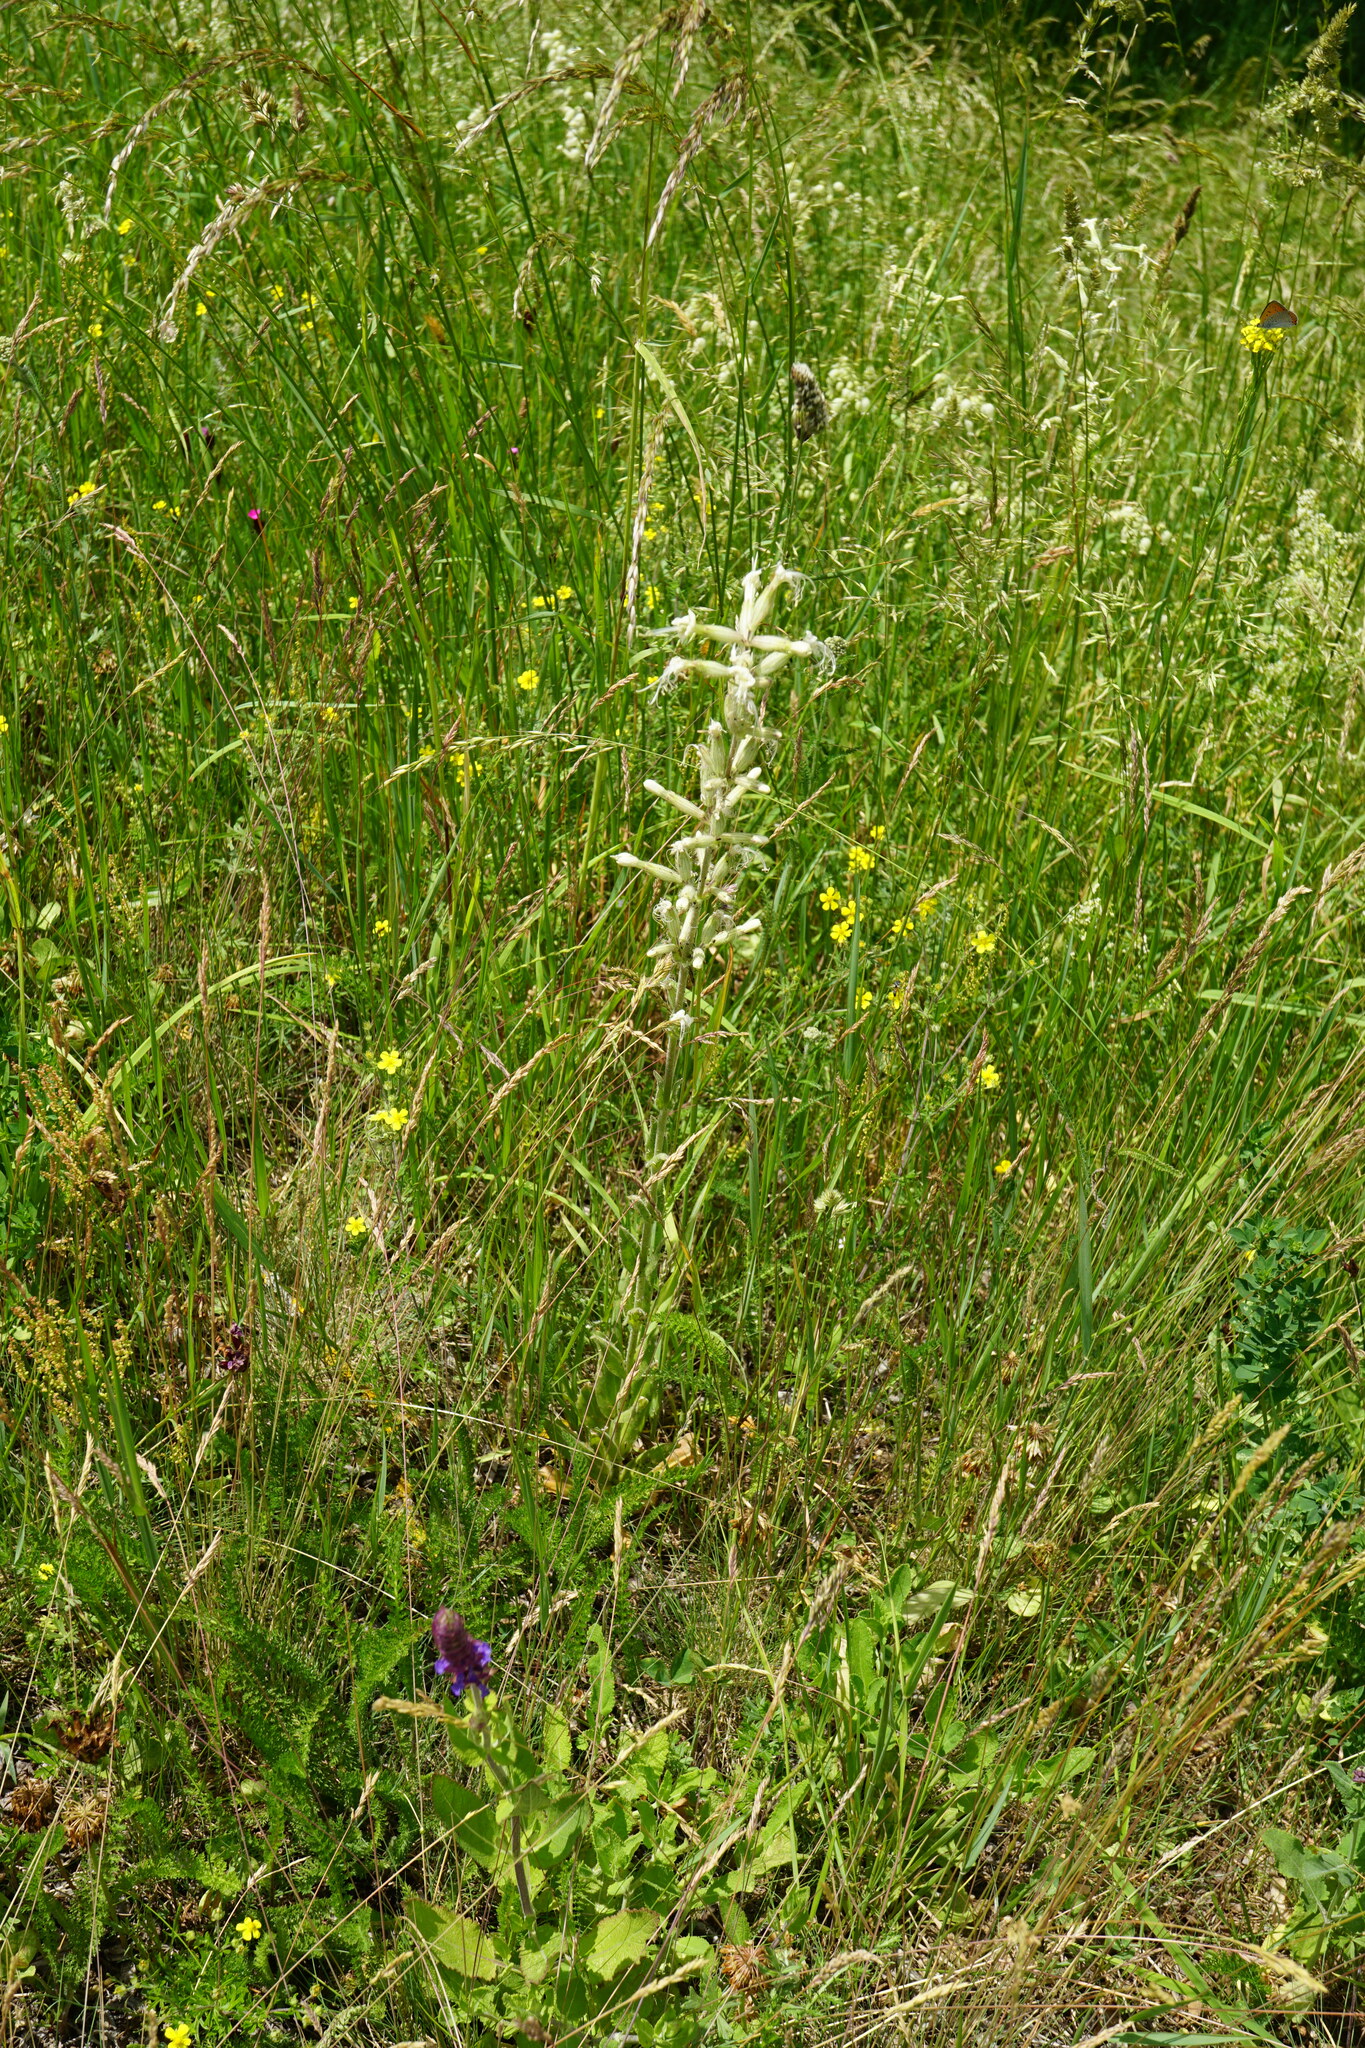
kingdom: Plantae
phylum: Tracheophyta
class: Magnoliopsida
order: Caryophyllales
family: Caryophyllaceae
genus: Silene
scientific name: Silene viscosa
